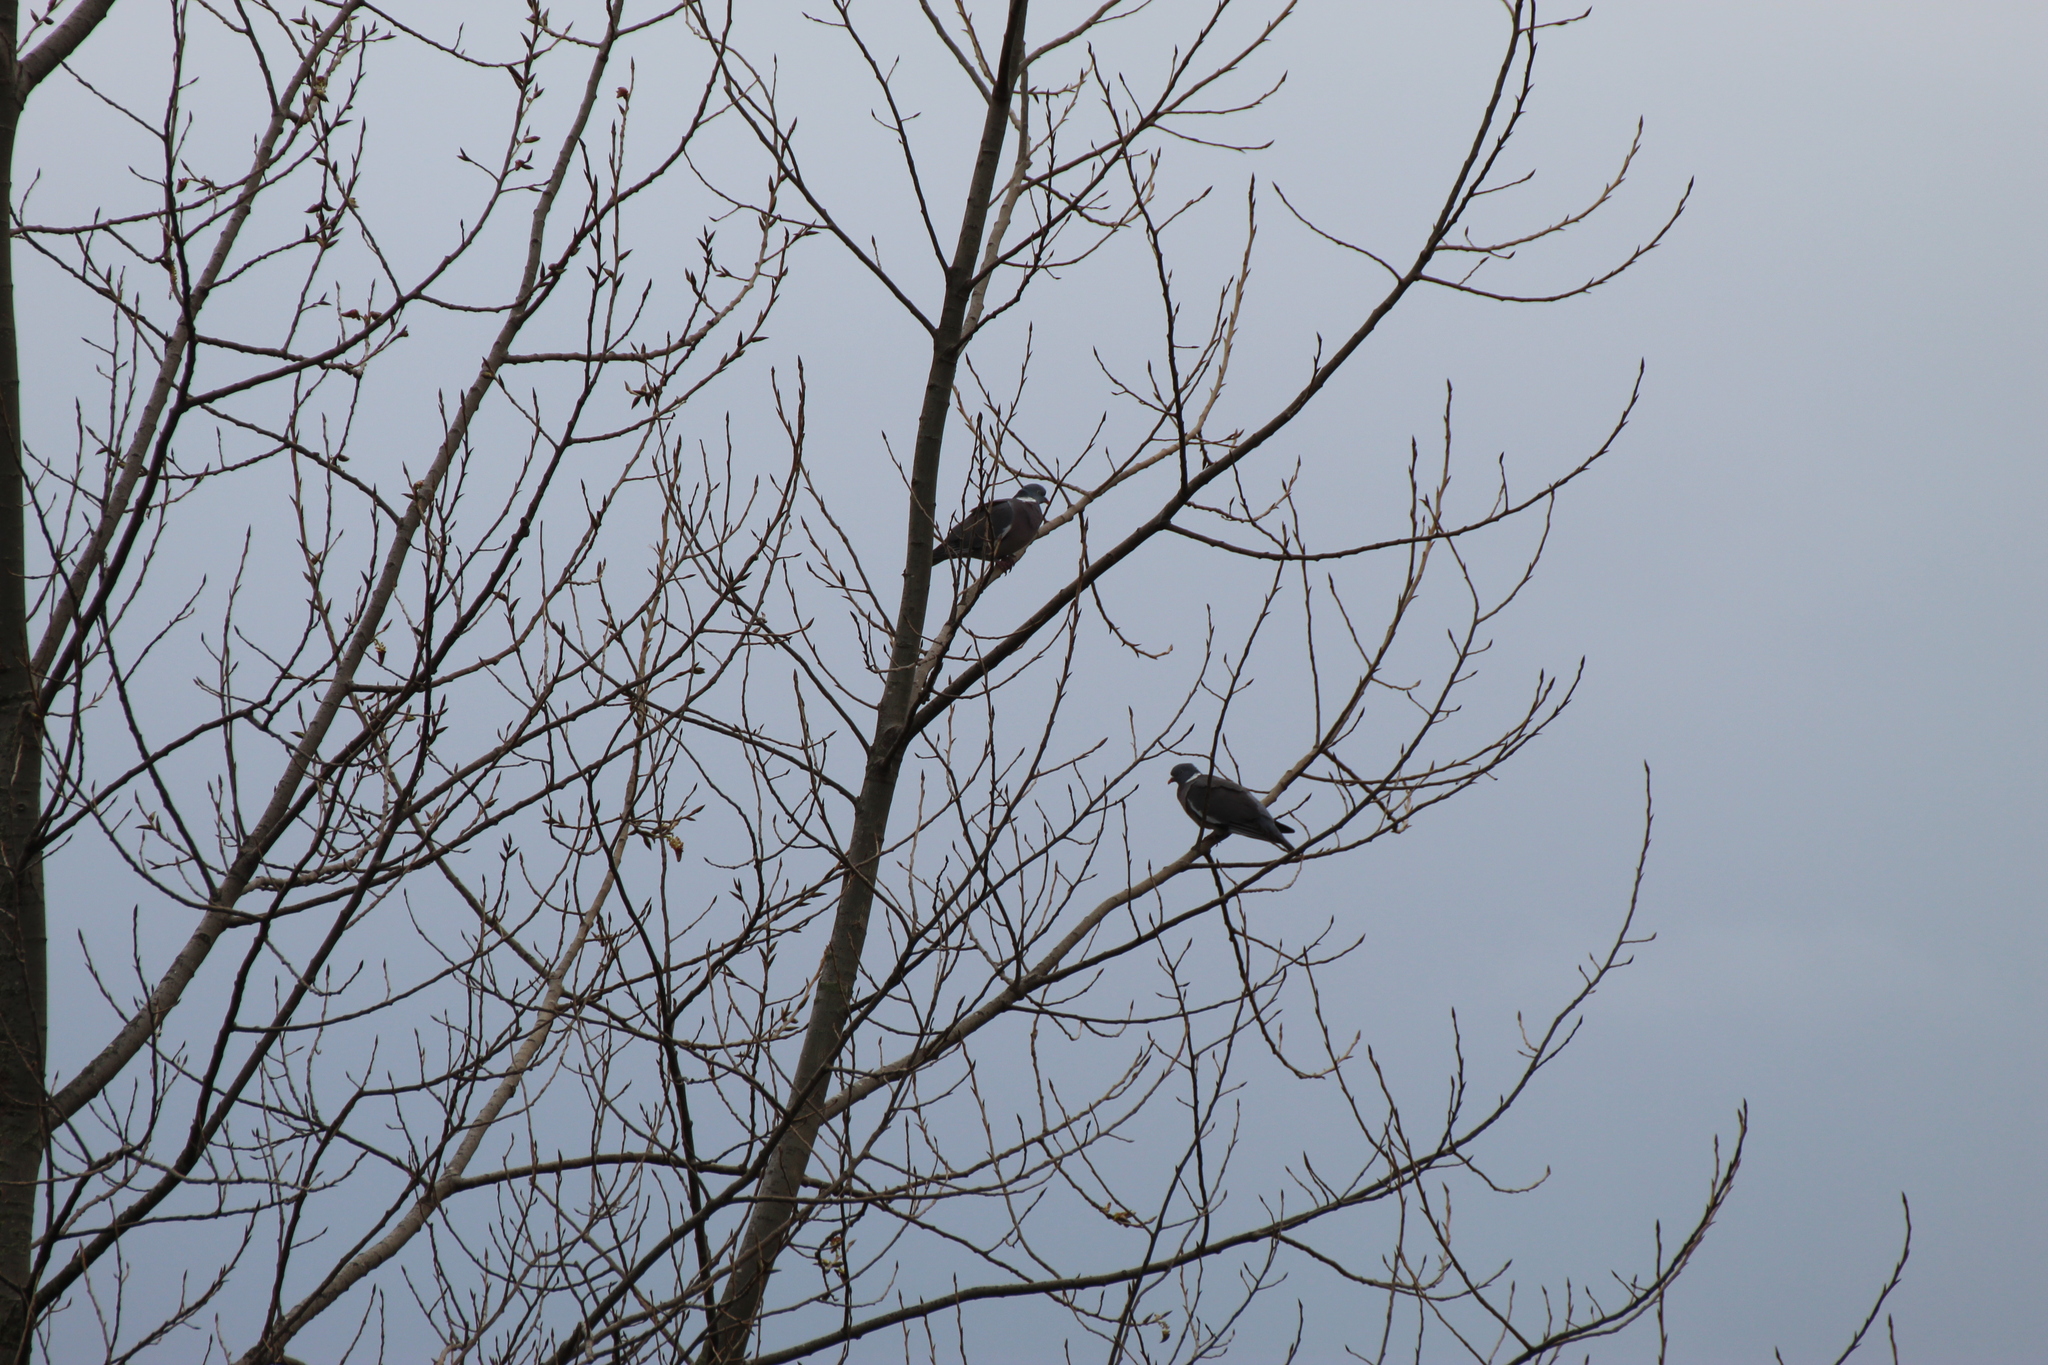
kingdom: Animalia
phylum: Chordata
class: Aves
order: Columbiformes
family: Columbidae
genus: Columba
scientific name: Columba palumbus
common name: Common wood pigeon
